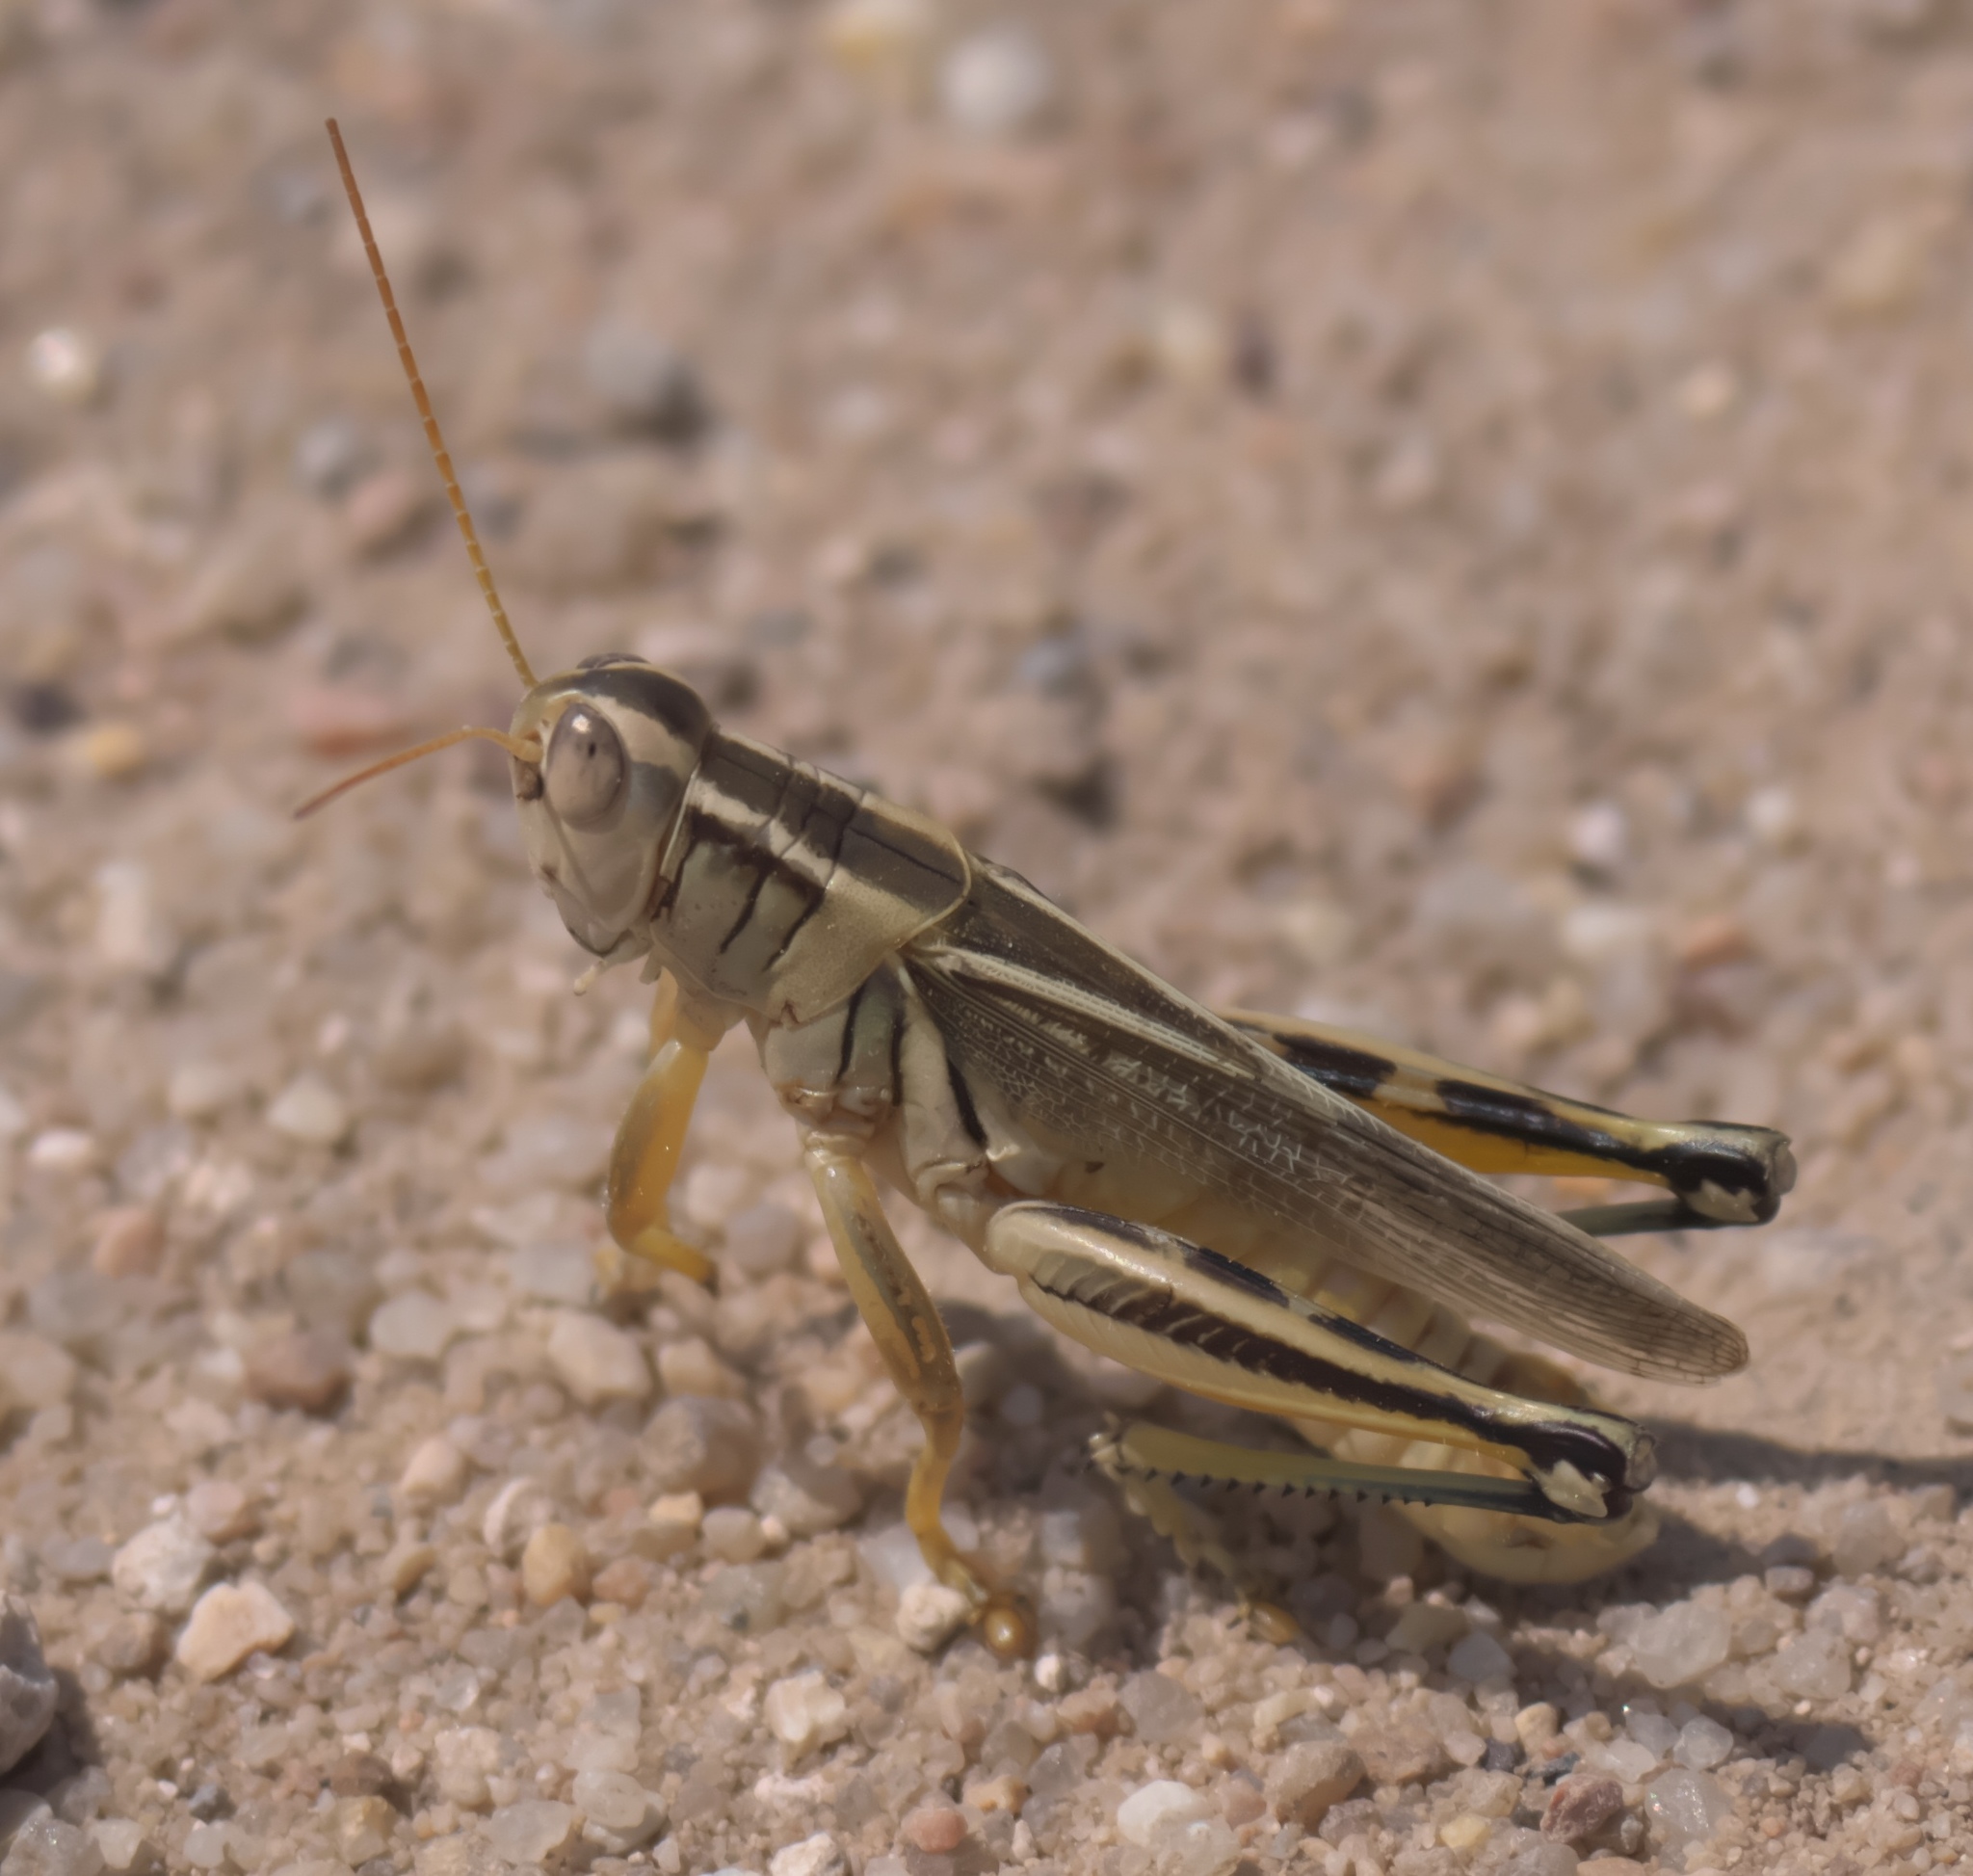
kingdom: Animalia
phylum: Arthropoda
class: Insecta
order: Orthoptera
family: Acrididae
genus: Melanoplus
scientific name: Melanoplus bivittatus
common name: Two-striped grasshopper
